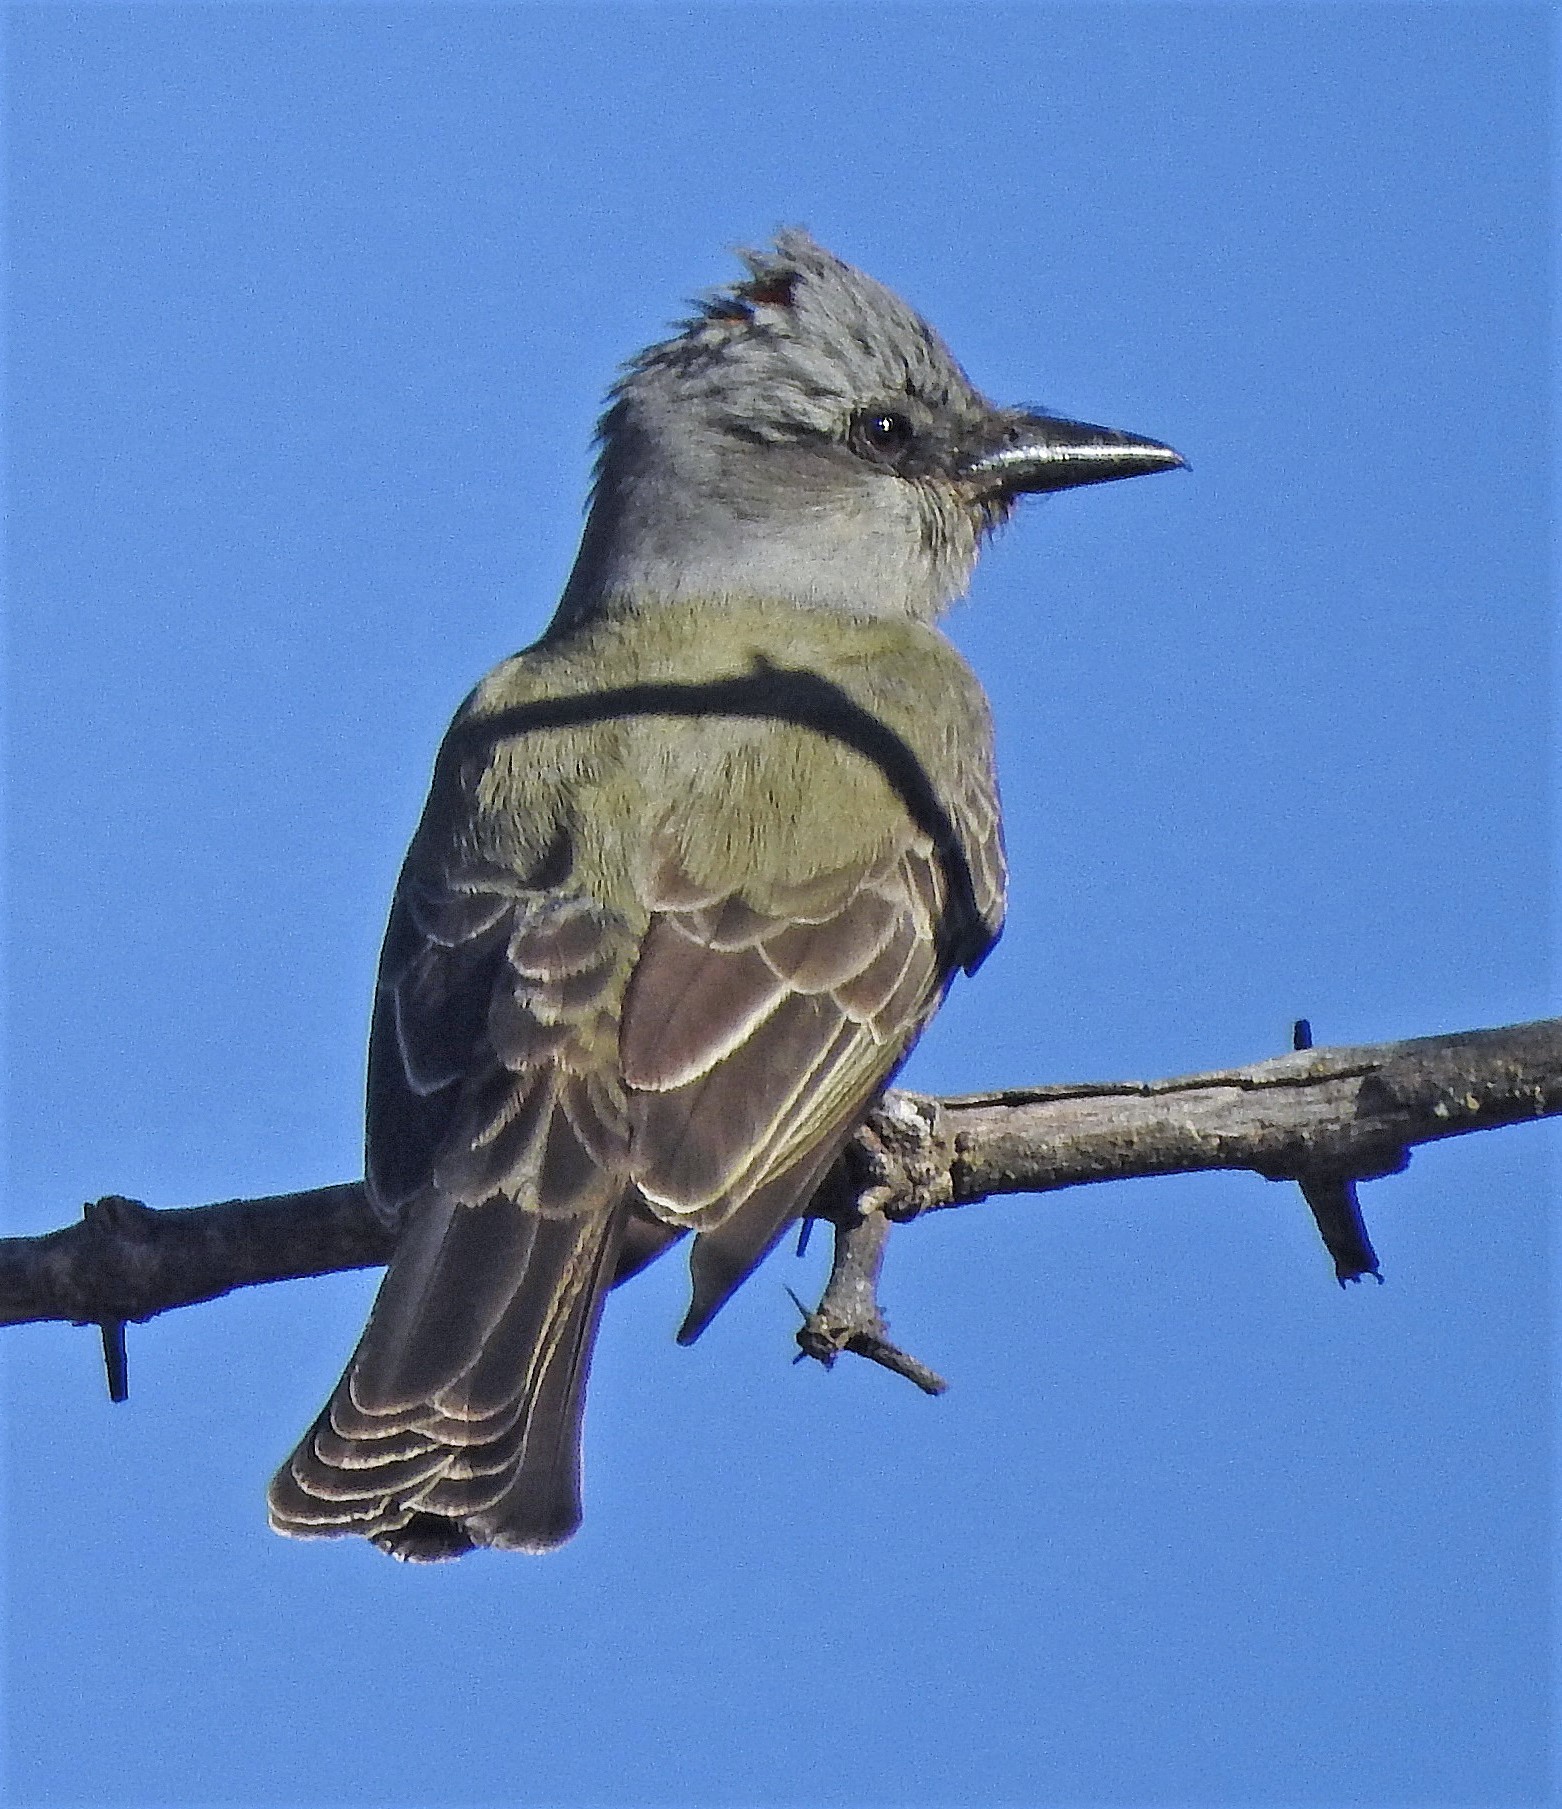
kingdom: Animalia
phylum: Chordata
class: Aves
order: Passeriformes
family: Tyrannidae
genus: Tyrannus
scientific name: Tyrannus melancholicus
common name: Tropical kingbird
